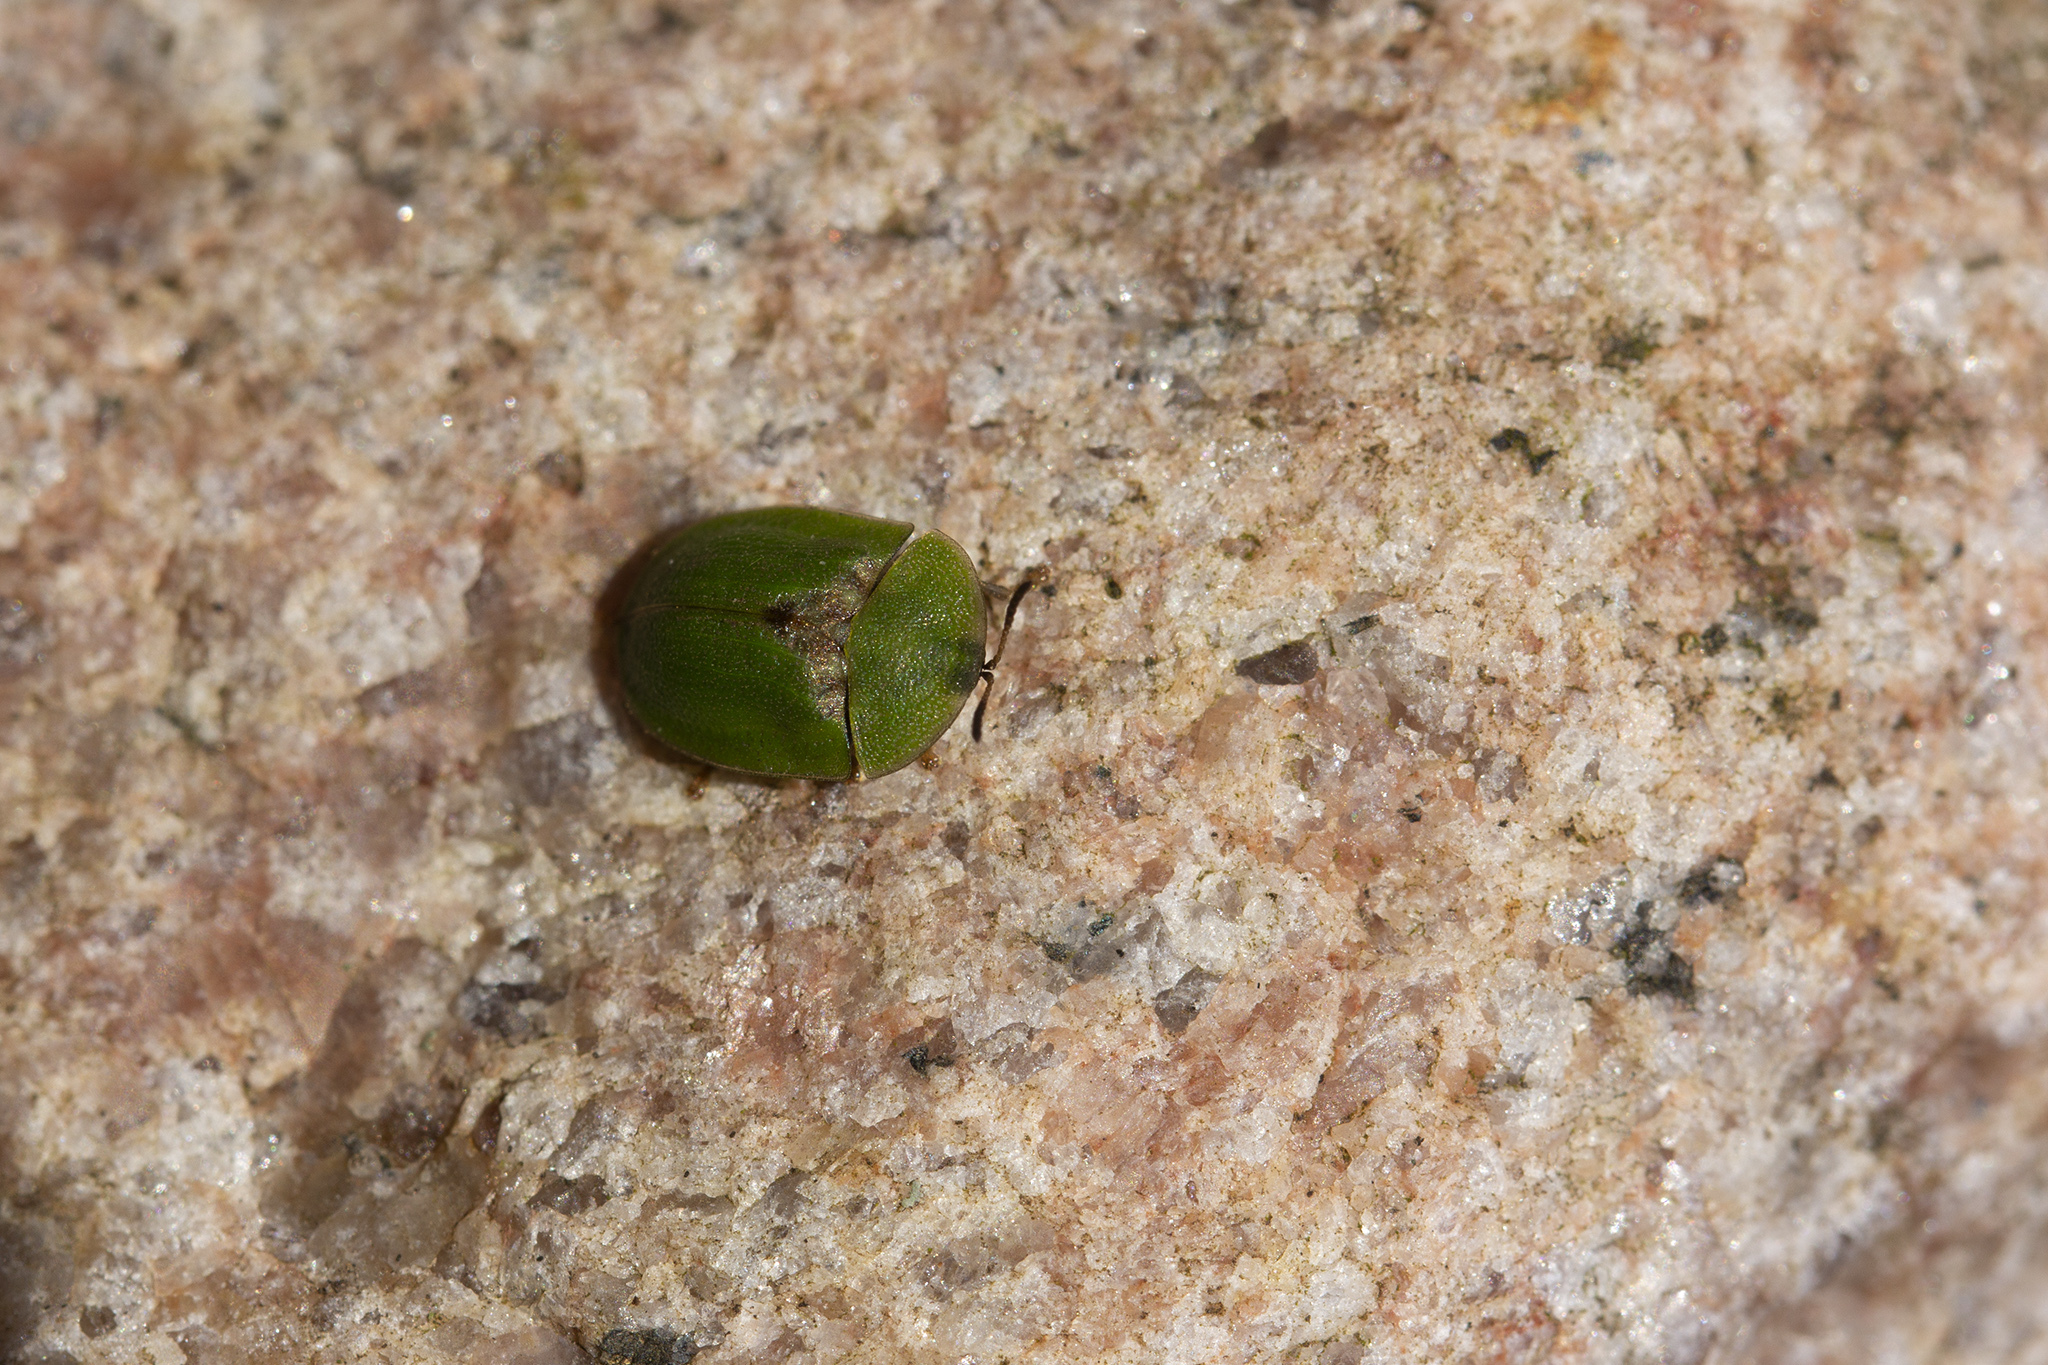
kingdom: Animalia
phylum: Arthropoda
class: Insecta
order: Coleoptera
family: Chrysomelidae
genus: Cassida
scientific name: Cassida rubiginosa
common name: Thistle tortoise beetle
